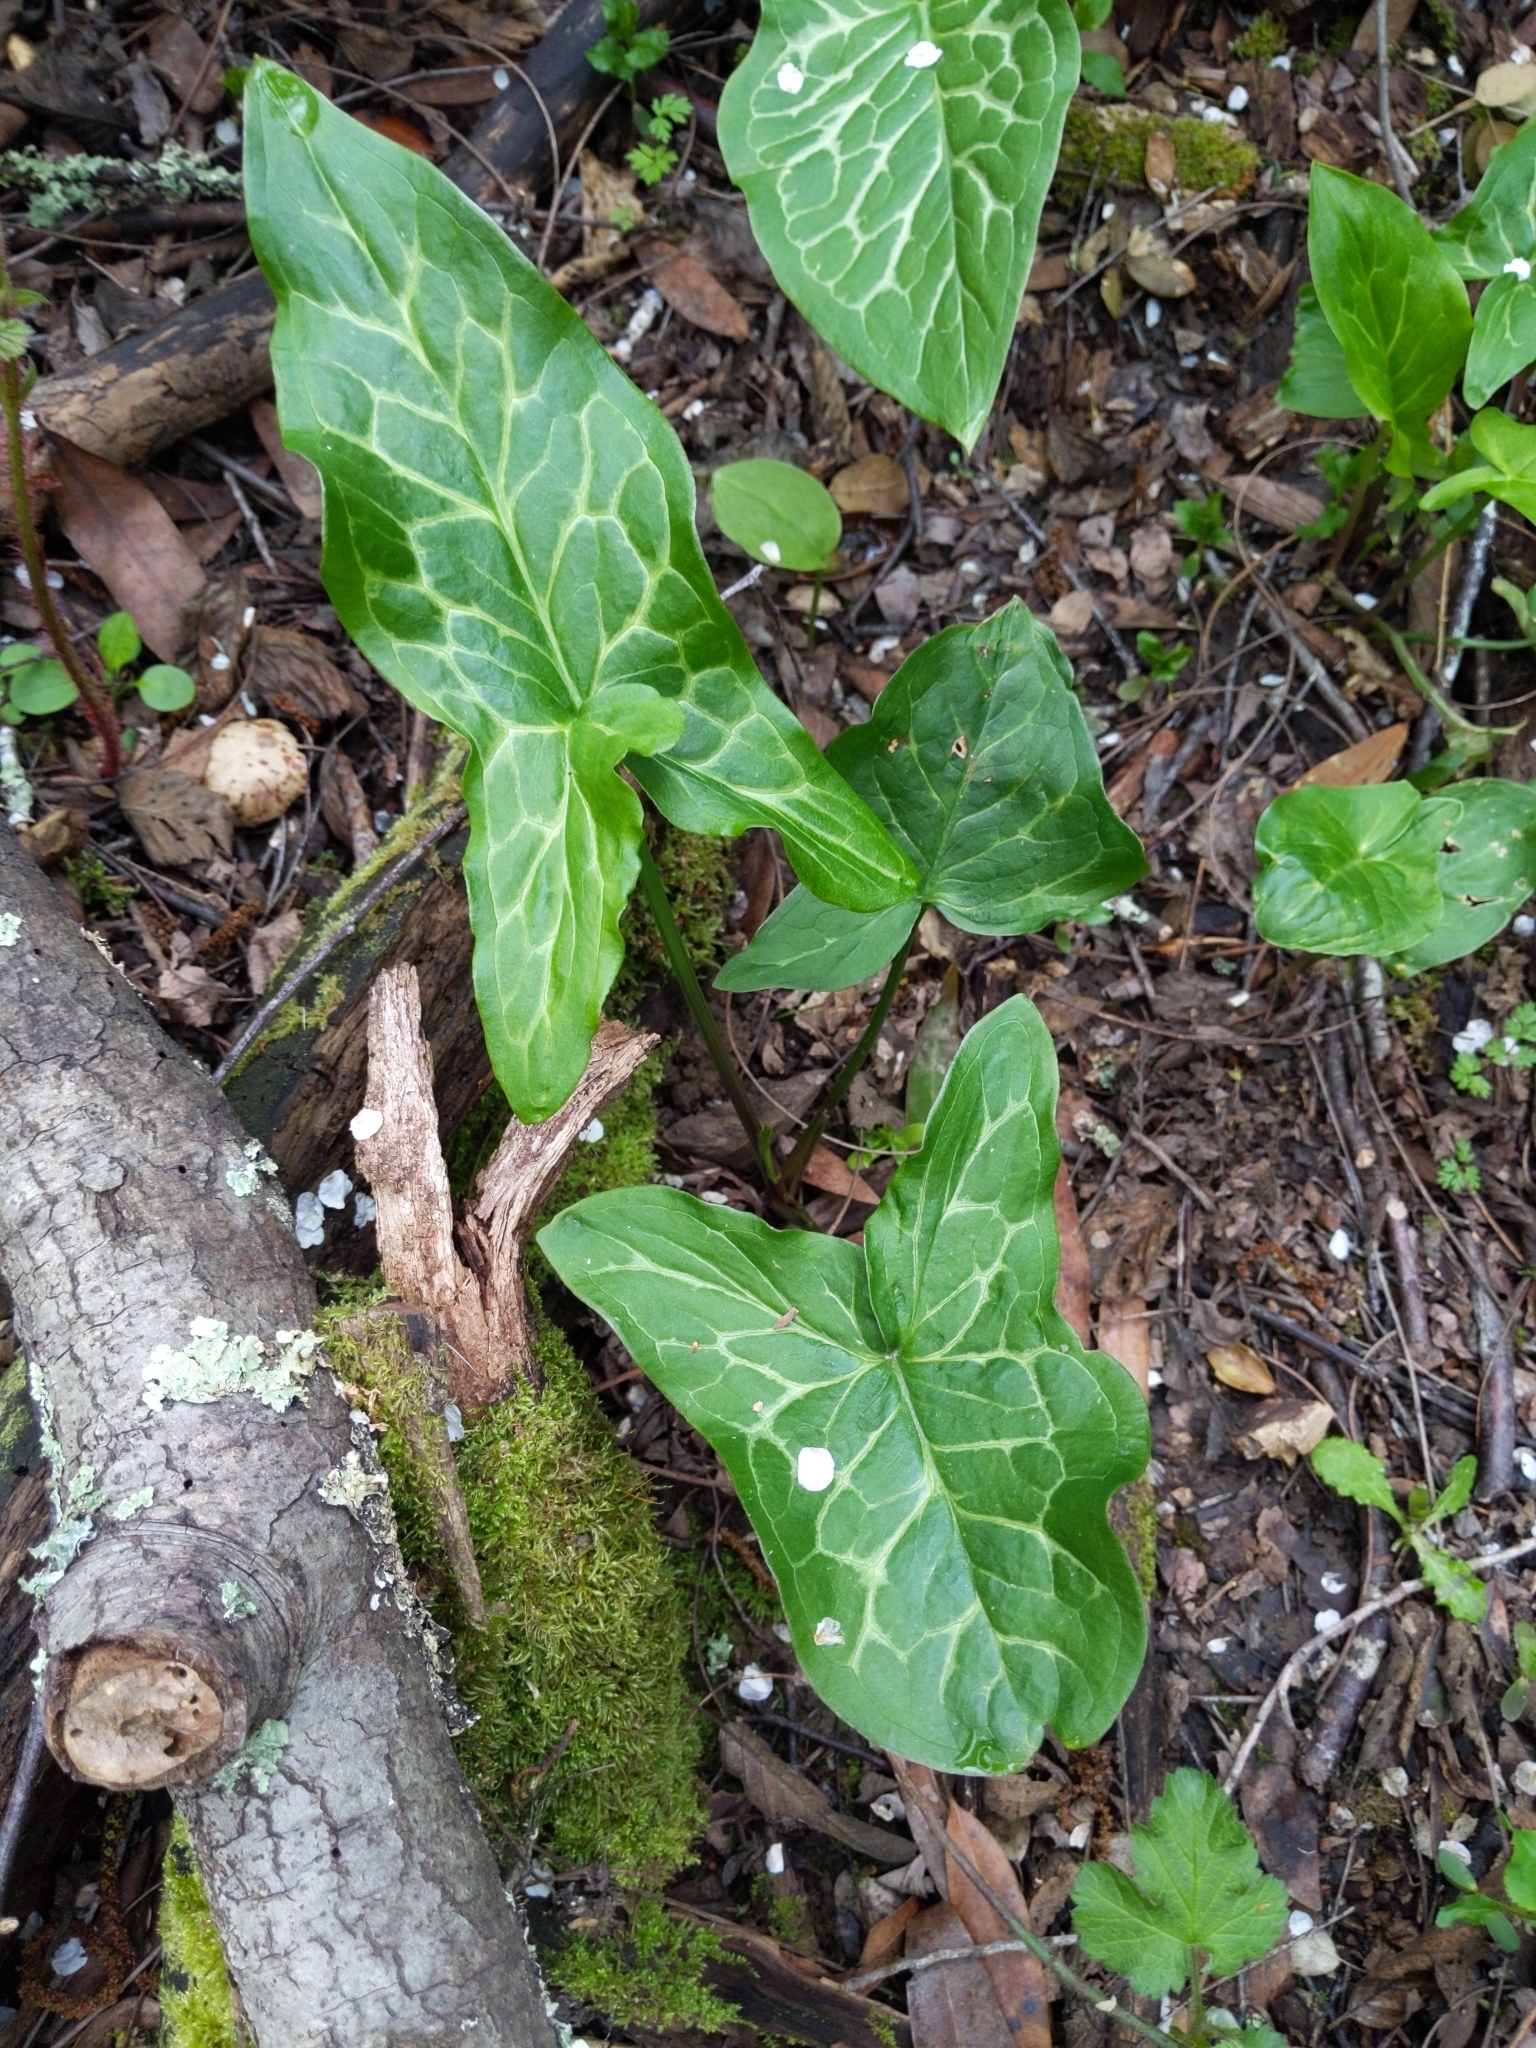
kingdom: Plantae
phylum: Tracheophyta
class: Liliopsida
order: Alismatales
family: Araceae
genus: Arum
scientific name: Arum italicum
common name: Italian lords-and-ladies
